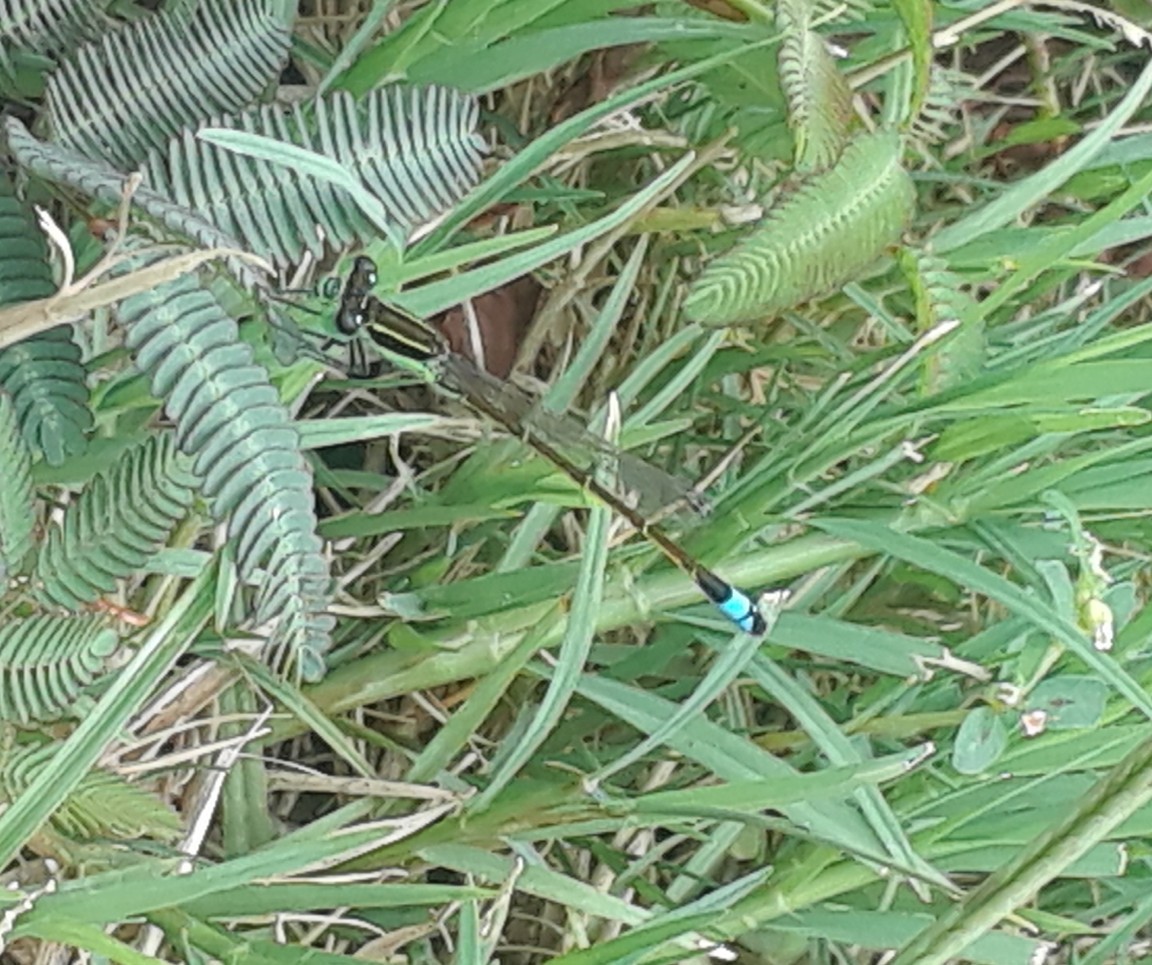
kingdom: Animalia
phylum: Arthropoda
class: Insecta
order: Odonata
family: Coenagrionidae
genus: Ischnura
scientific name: Ischnura ramburii
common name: Rambur's forktail
